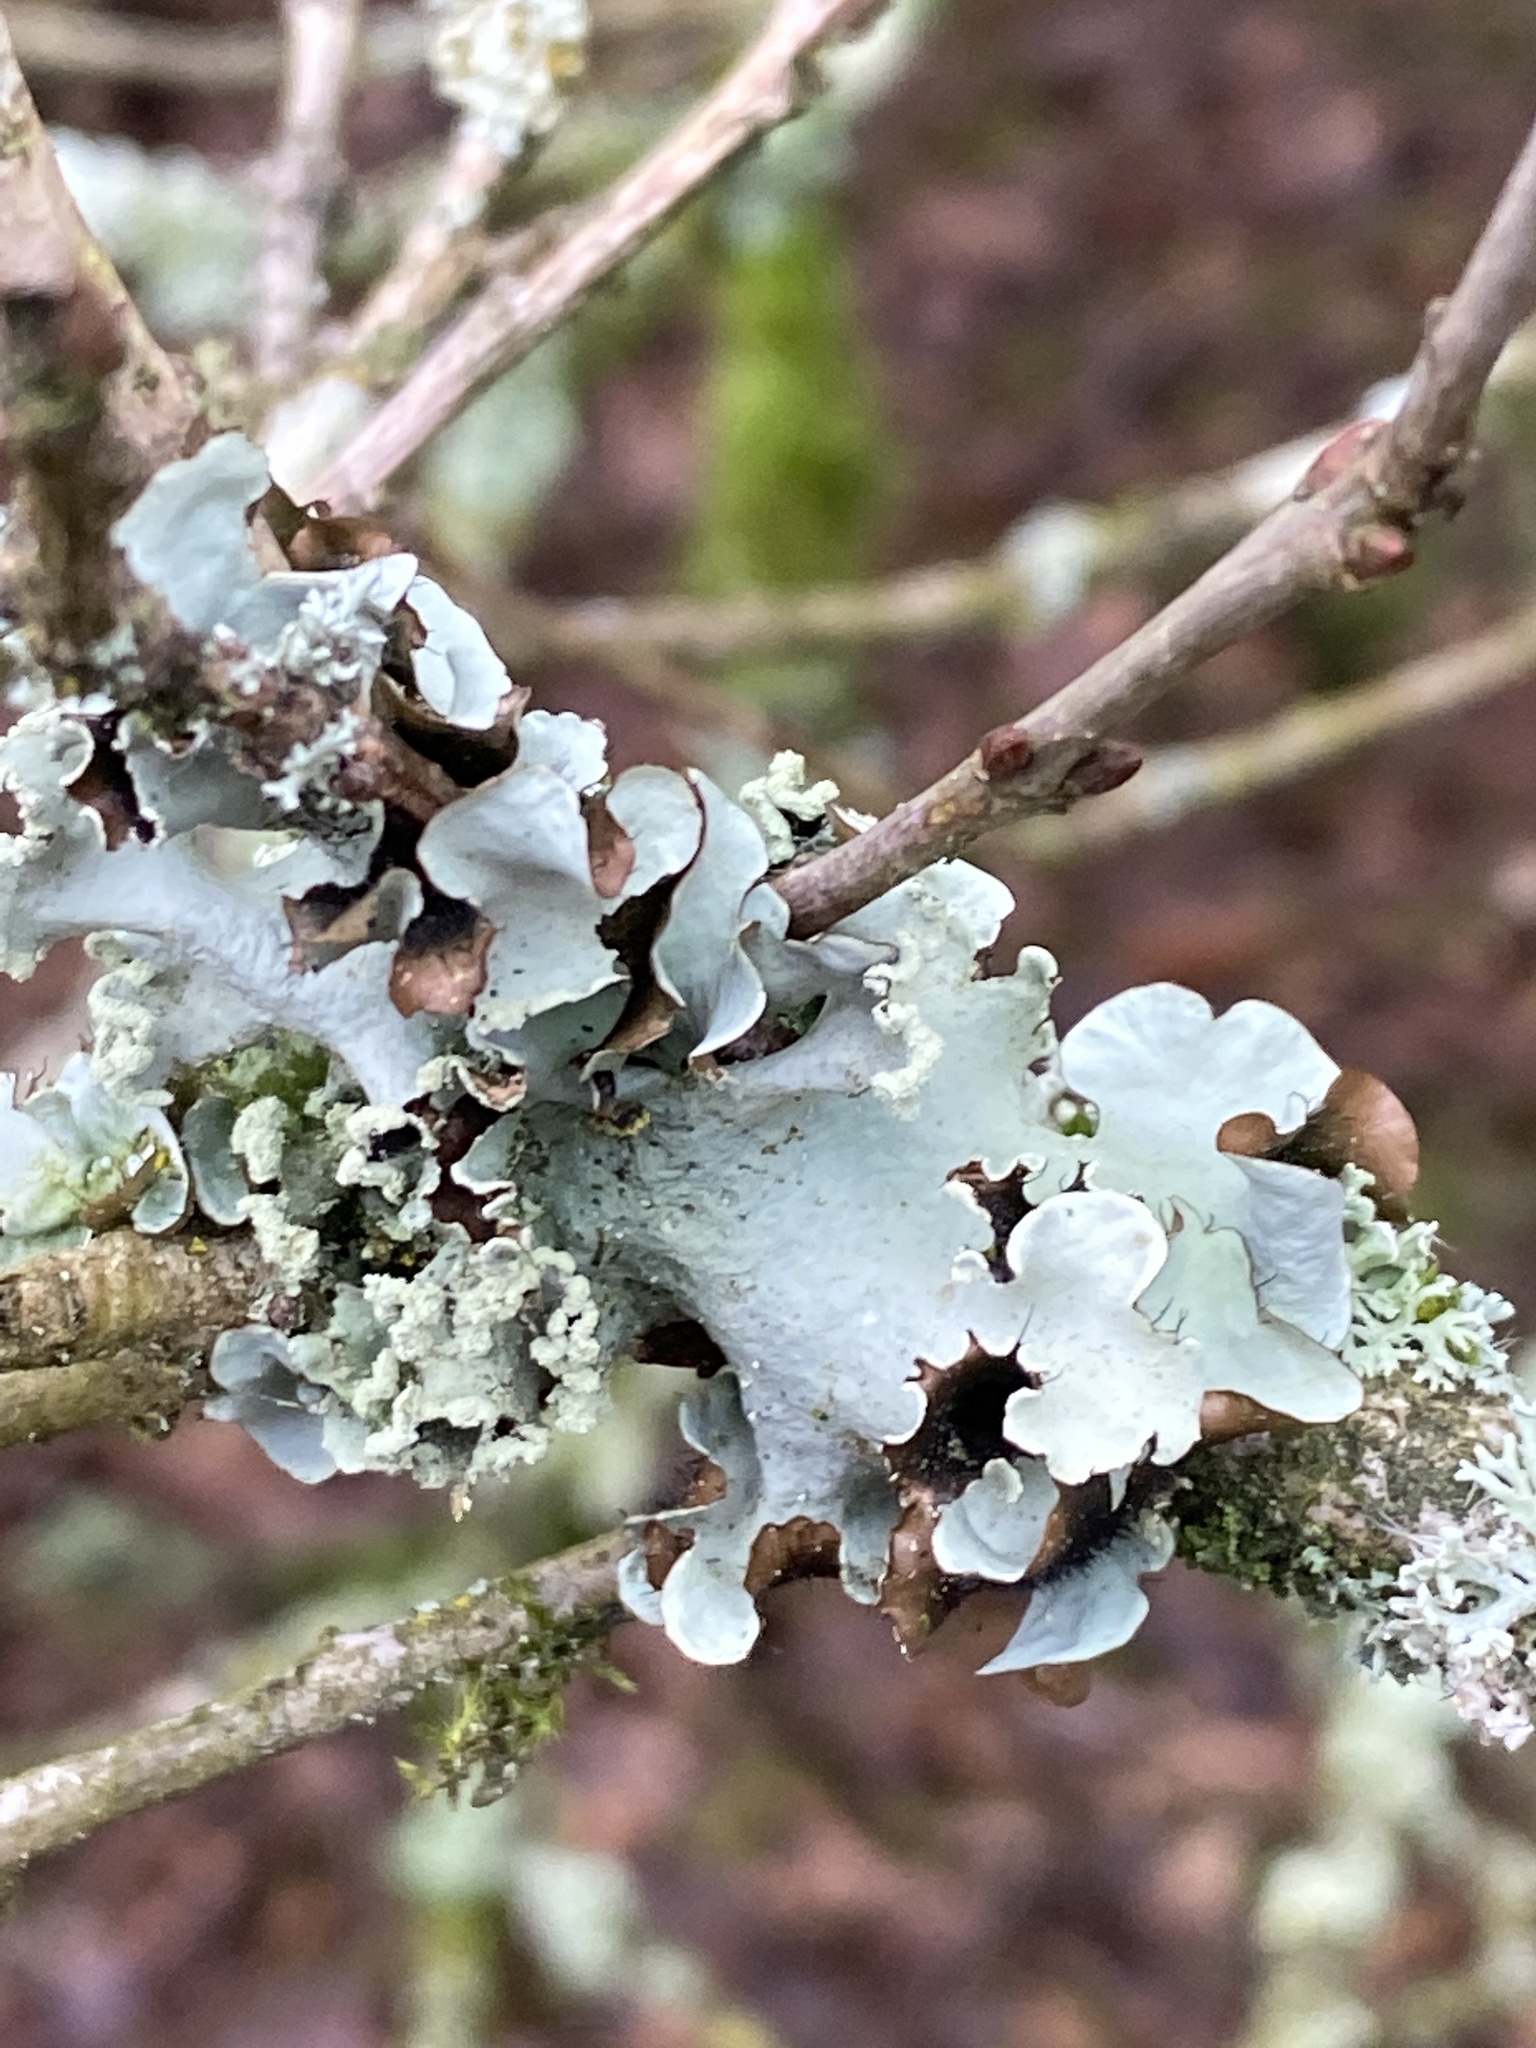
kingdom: Fungi
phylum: Ascomycota
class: Lecanoromycetes
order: Lecanorales
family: Parmeliaceae
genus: Parmotrema
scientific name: Parmotrema perlatum
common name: Black stone flower
